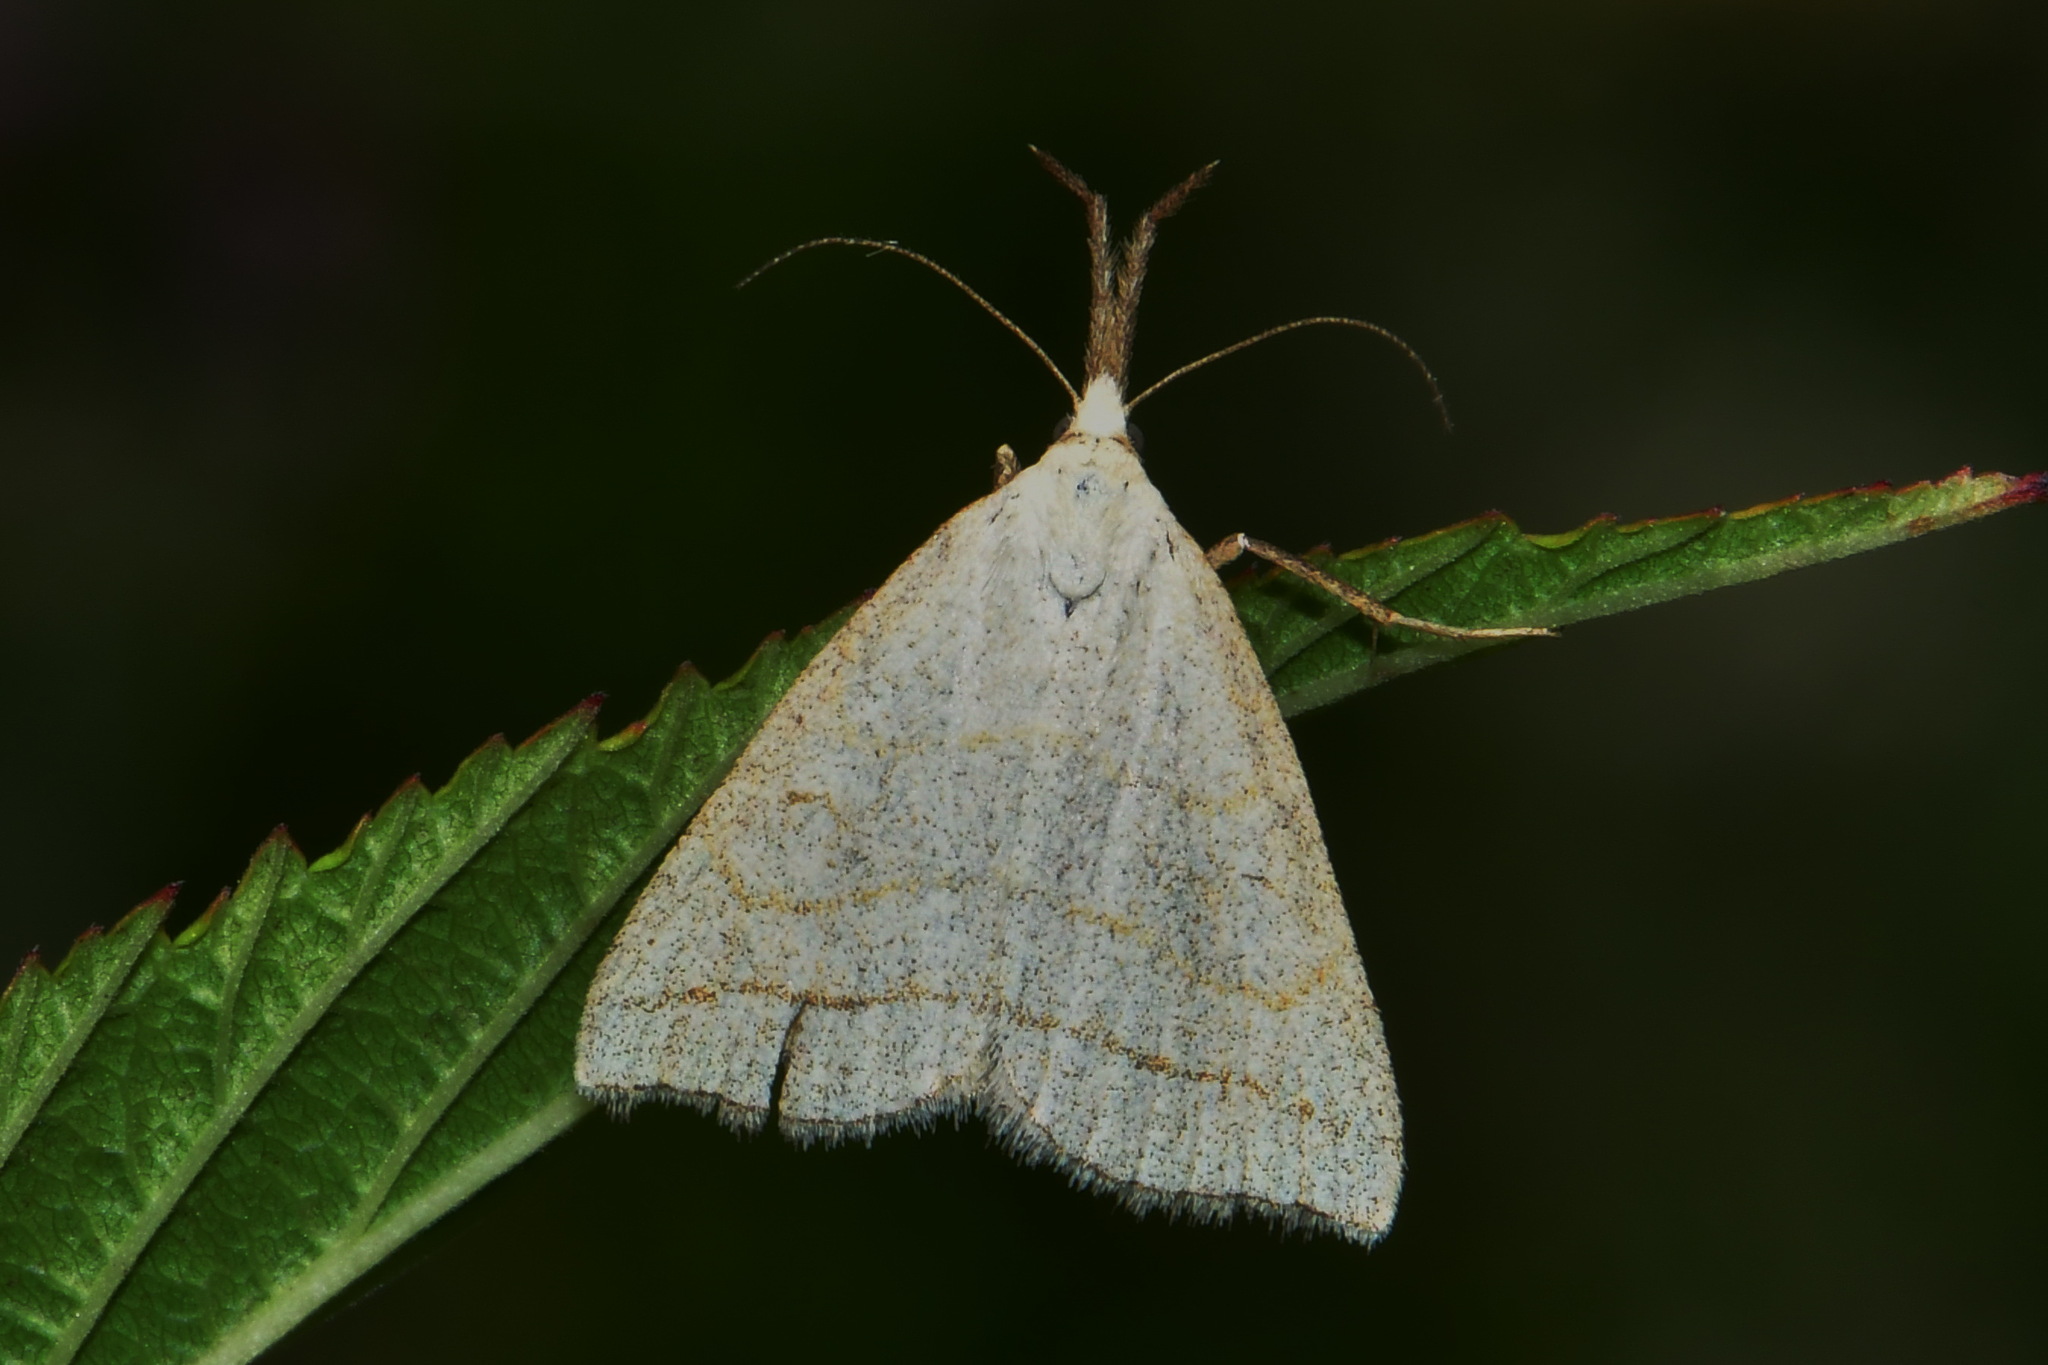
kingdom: Animalia
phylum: Arthropoda
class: Insecta
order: Lepidoptera
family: Erebidae
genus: Polypogon
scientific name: Polypogon tentacularia
